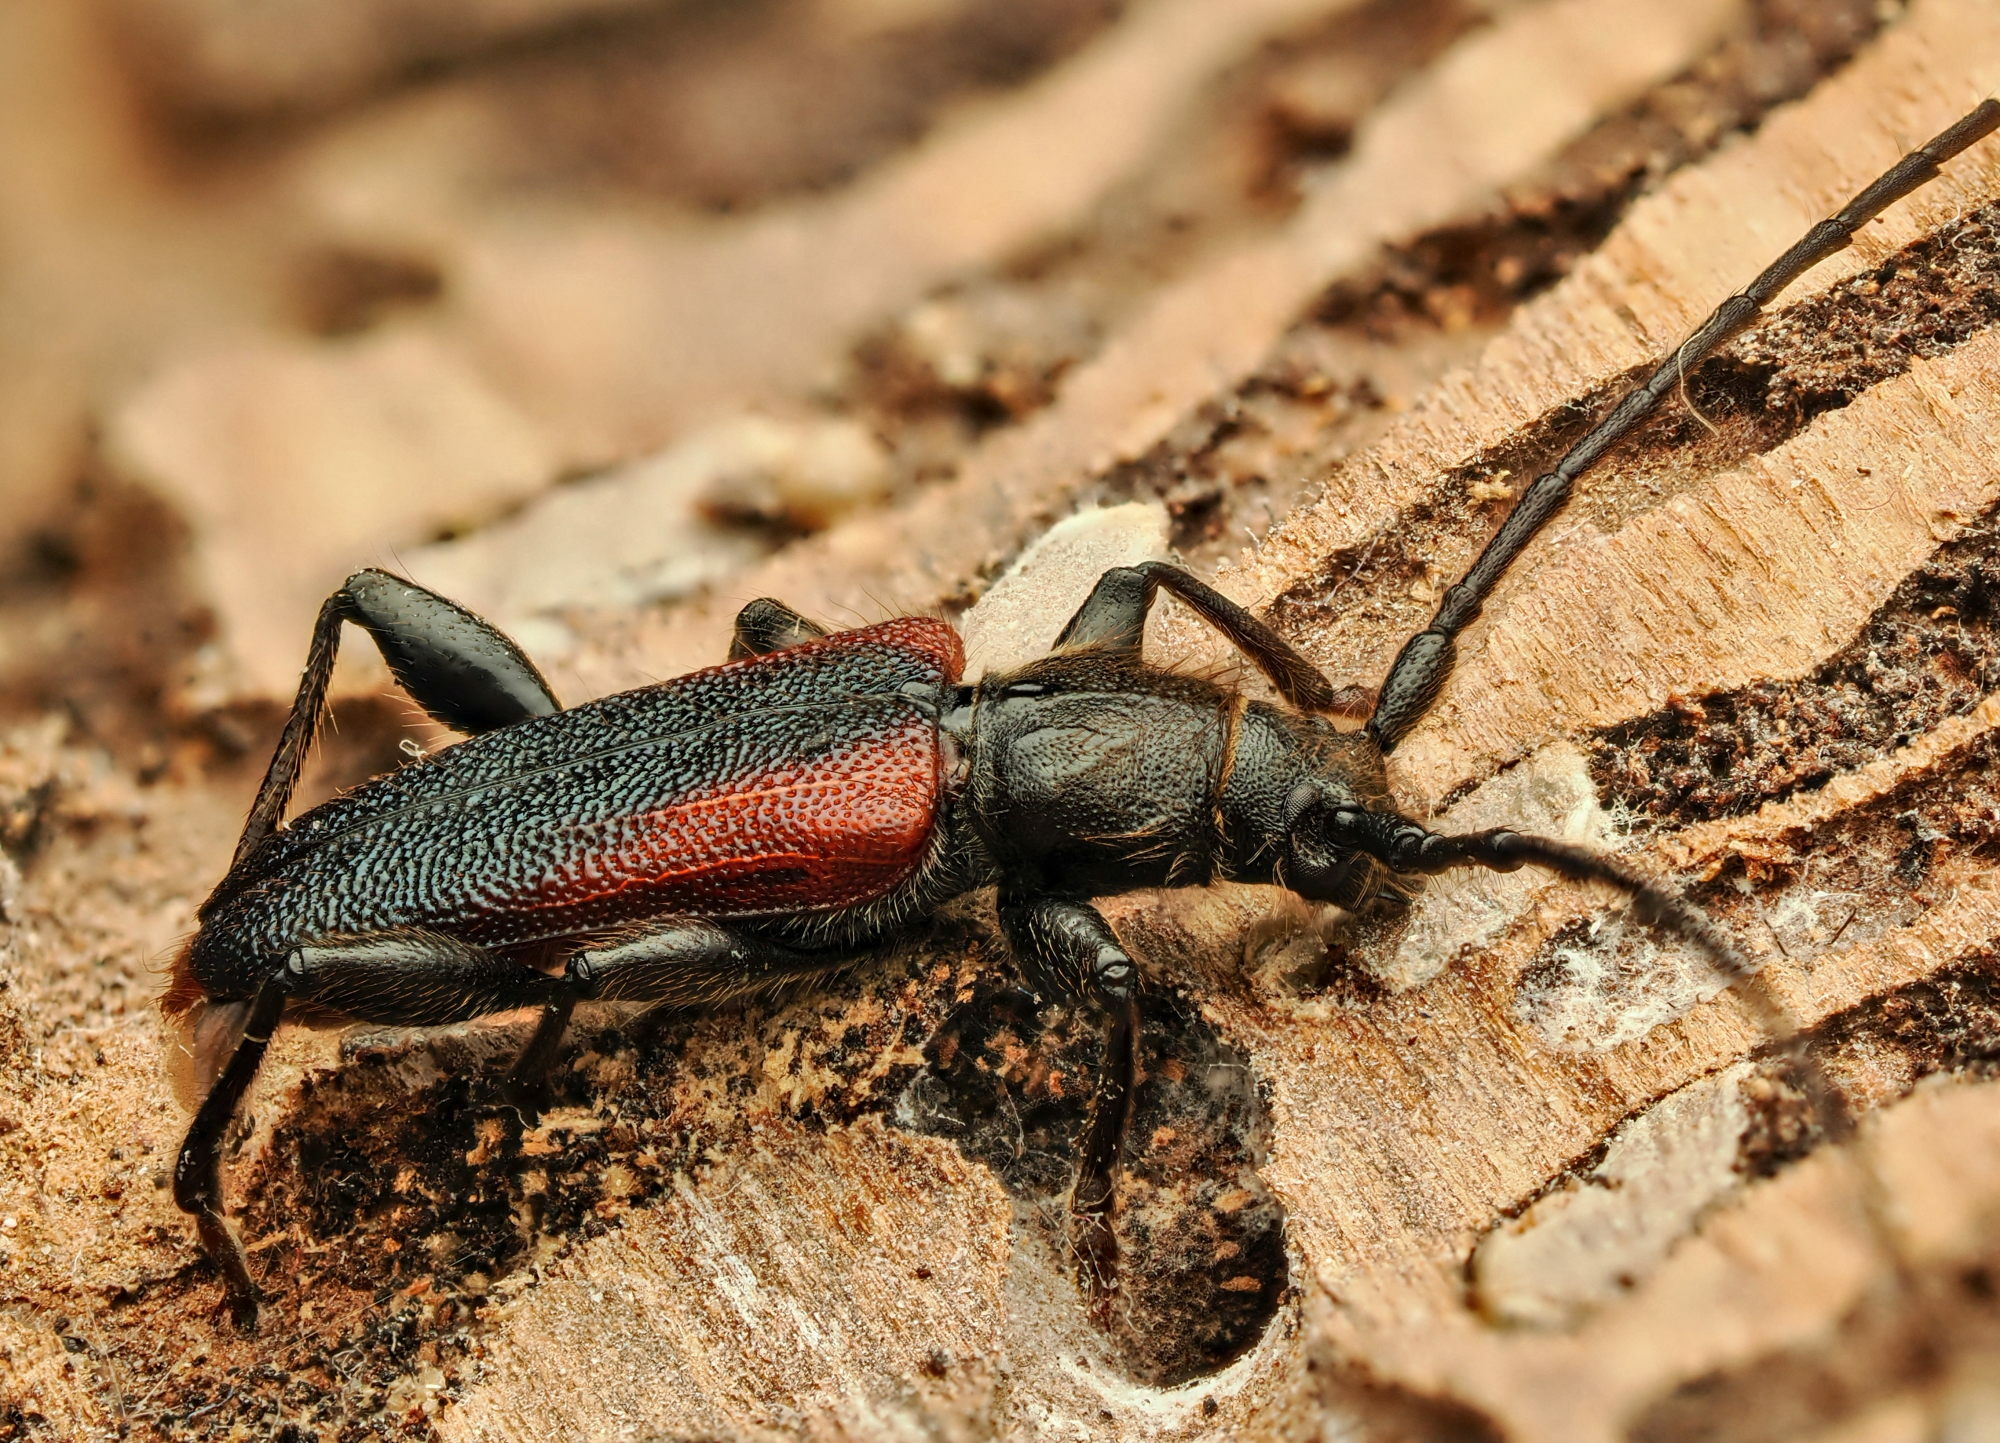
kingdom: Animalia
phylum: Arthropoda
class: Insecta
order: Coleoptera
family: Cerambycidae
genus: Callidiellum
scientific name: Callidiellum rufipennis
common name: Longhorn beetle
